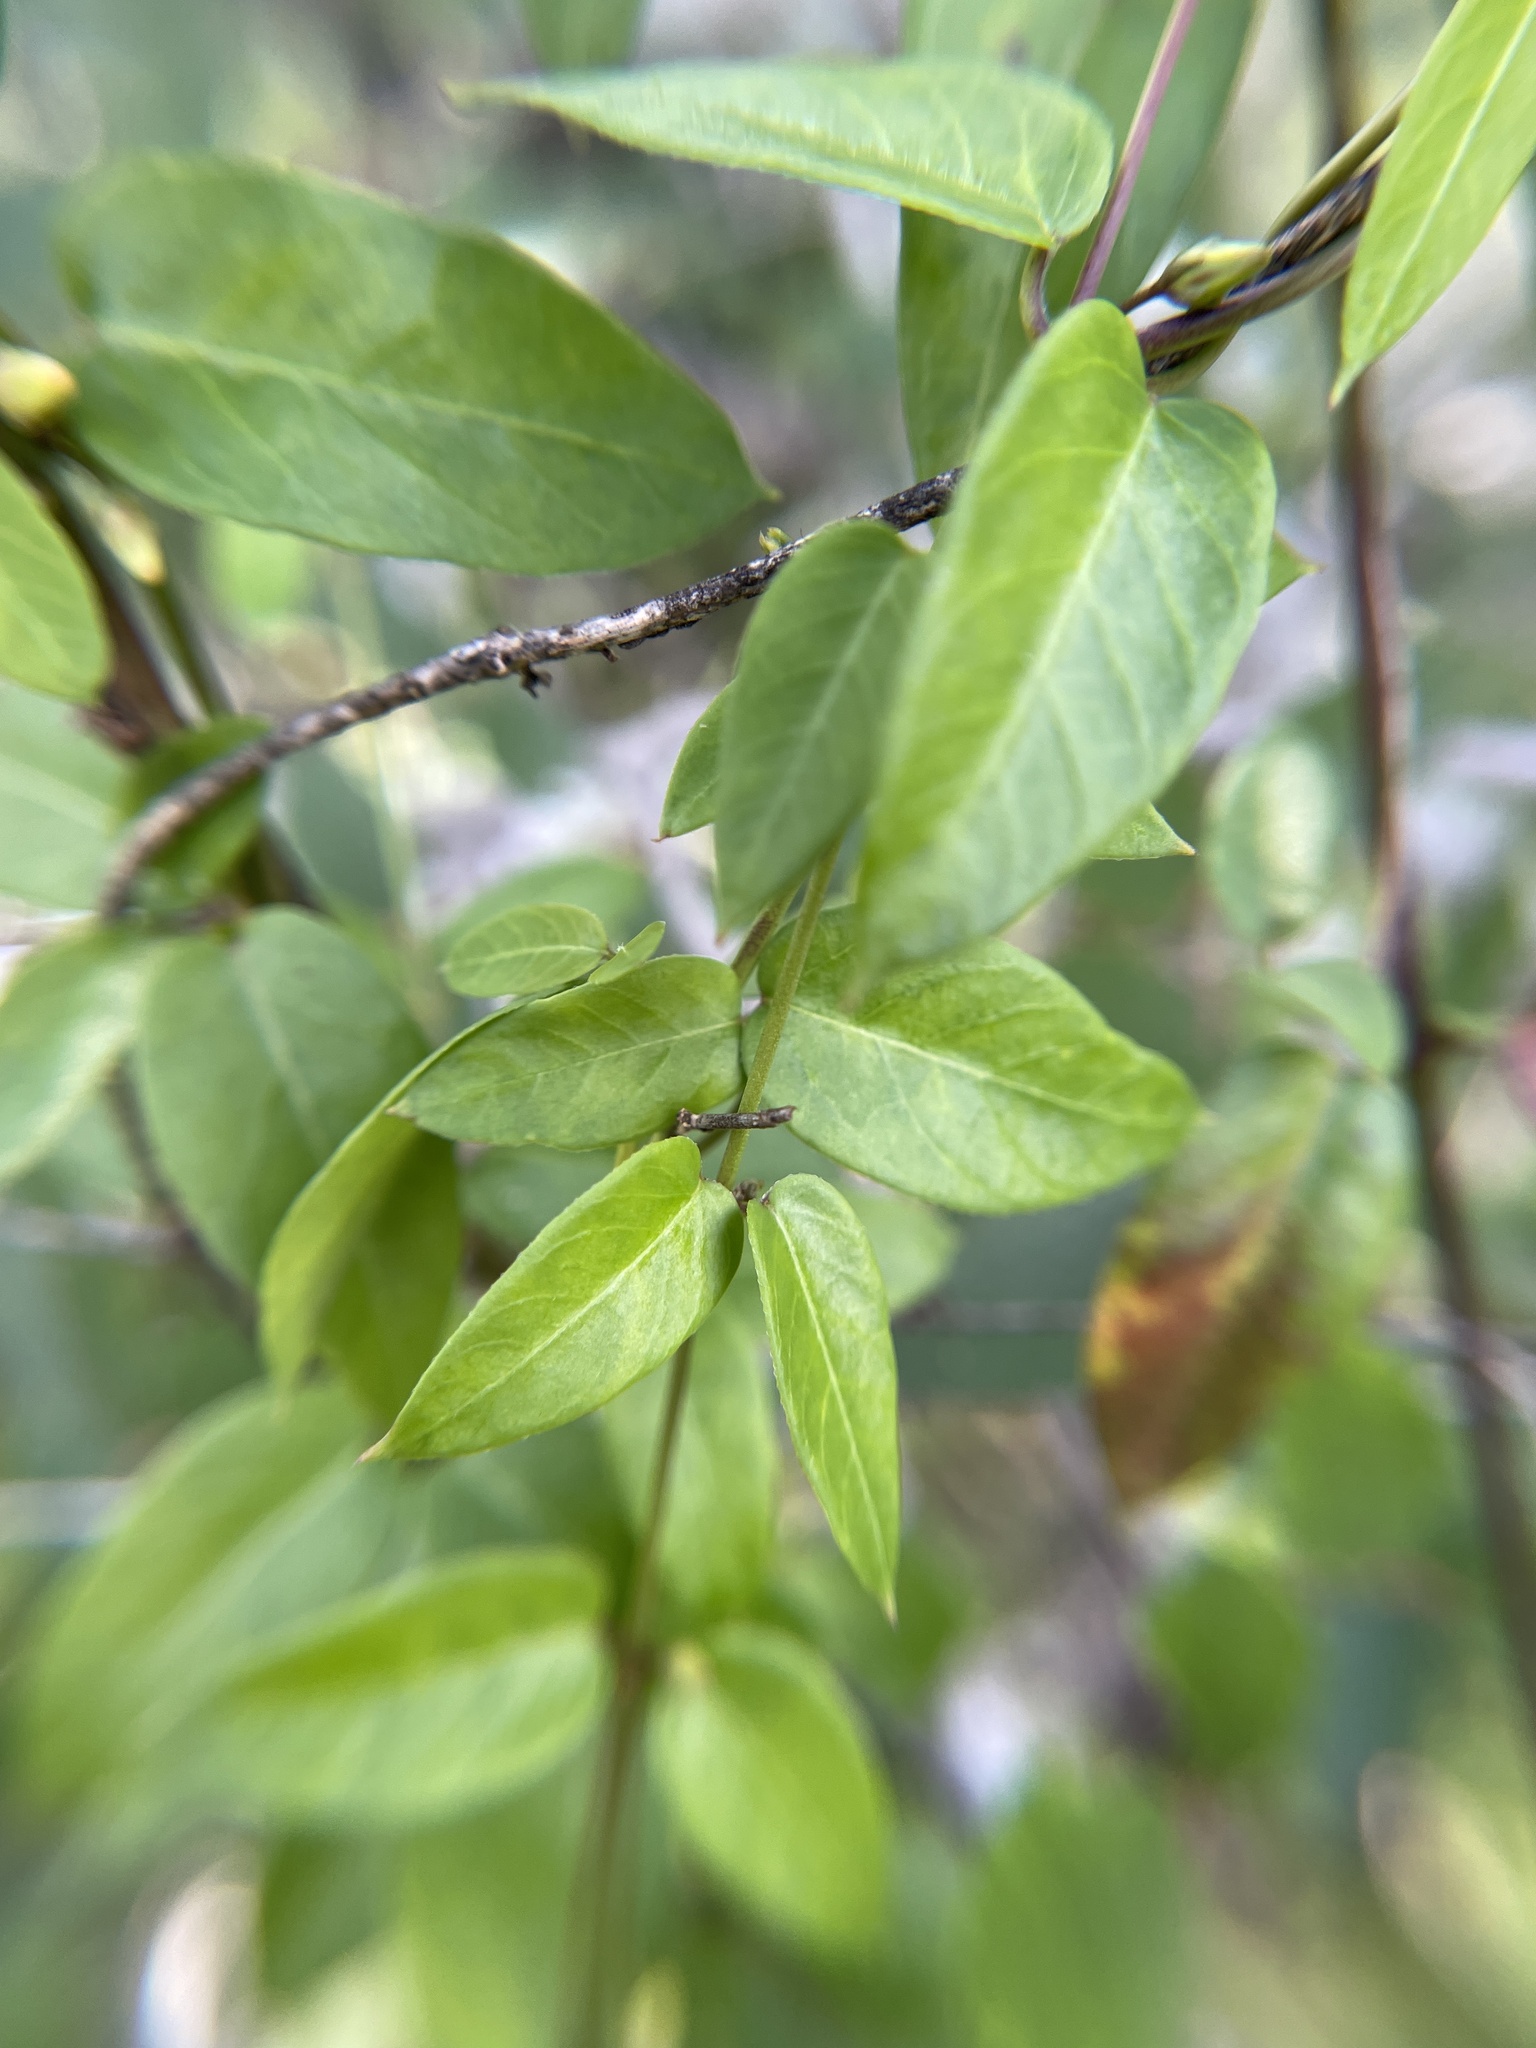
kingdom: Plantae
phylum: Tracheophyta
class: Magnoliopsida
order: Gentianales
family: Apocynaceae
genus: Metastelma
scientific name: Metastelma barbigerum
